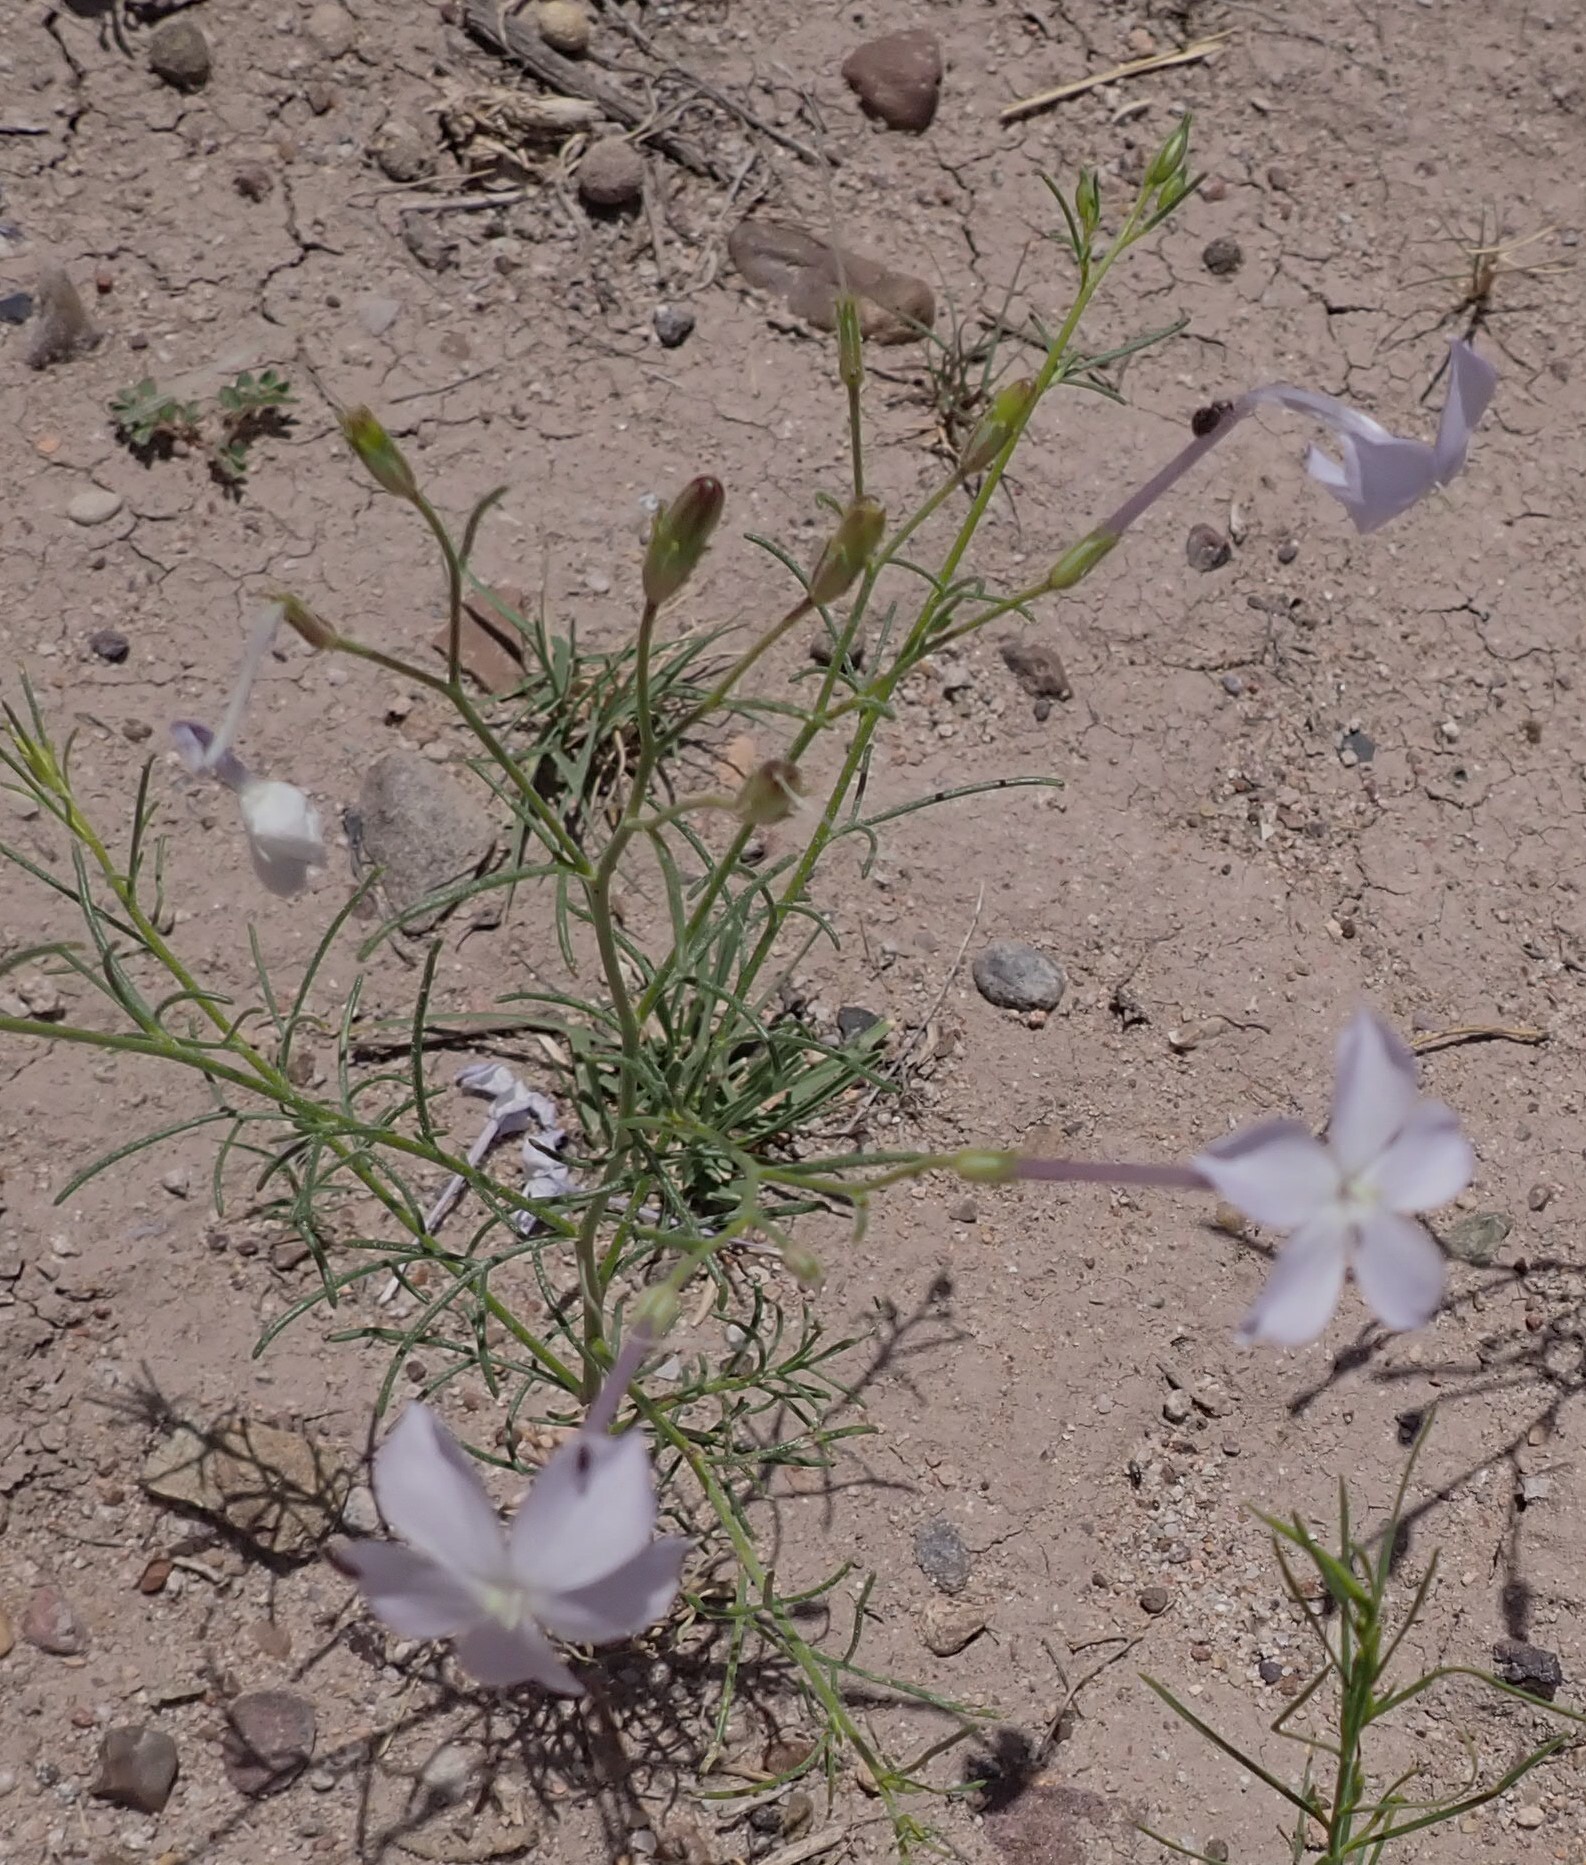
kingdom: Plantae
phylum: Tracheophyta
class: Magnoliopsida
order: Ericales
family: Polemoniaceae
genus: Ipomopsis
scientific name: Ipomopsis longiflora
